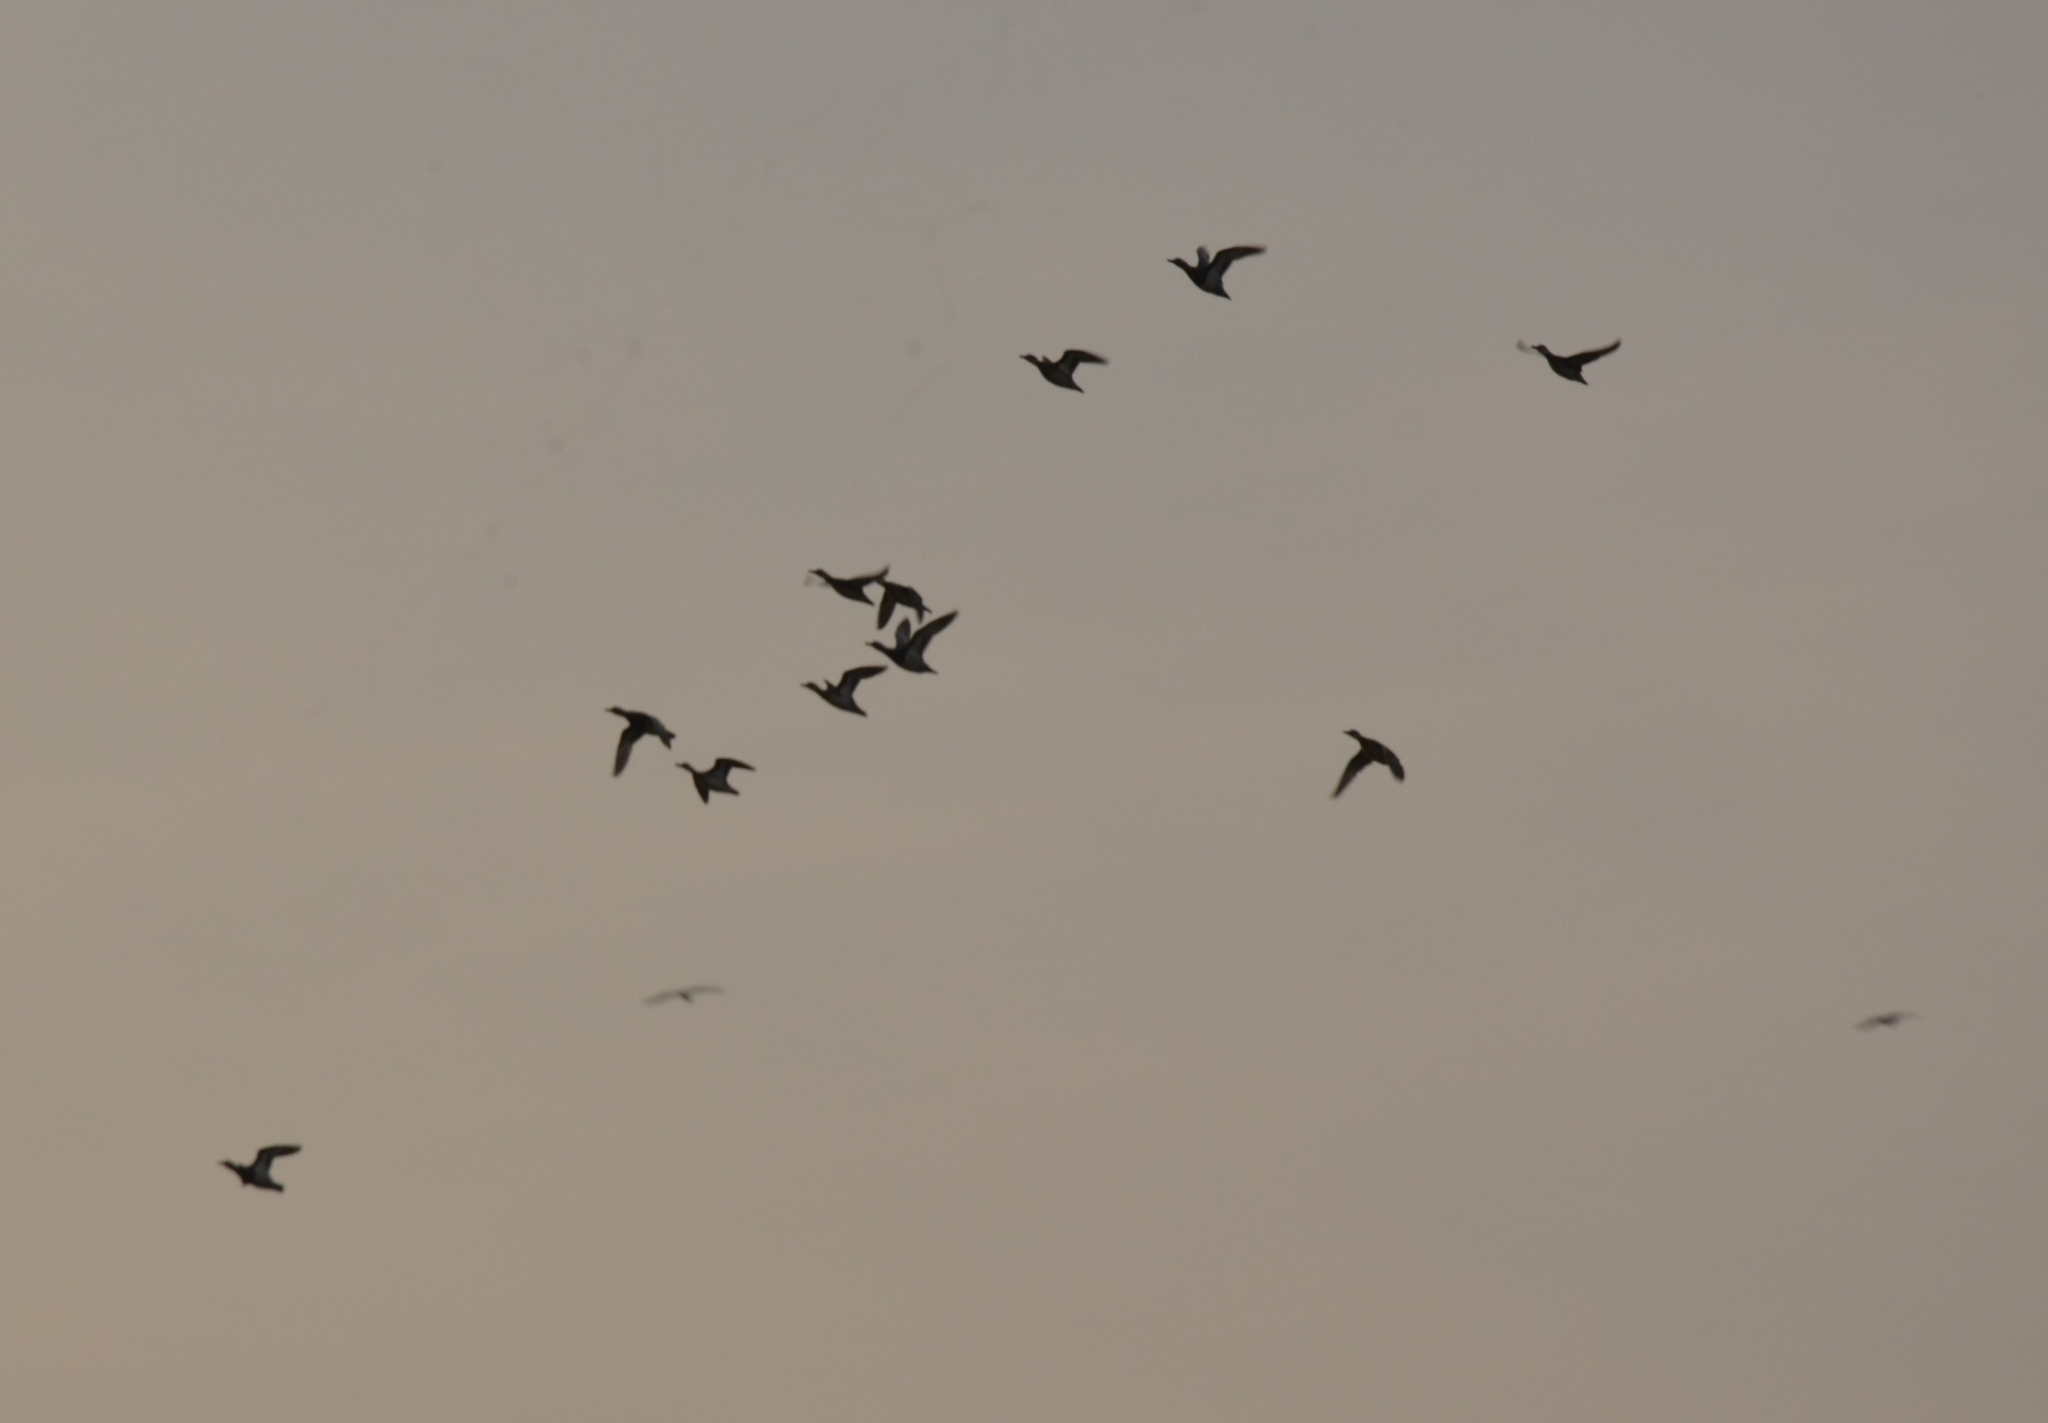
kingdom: Animalia
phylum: Chordata
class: Aves
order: Anseriformes
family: Anatidae
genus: Spatula
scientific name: Spatula querquedula
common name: Garganey
